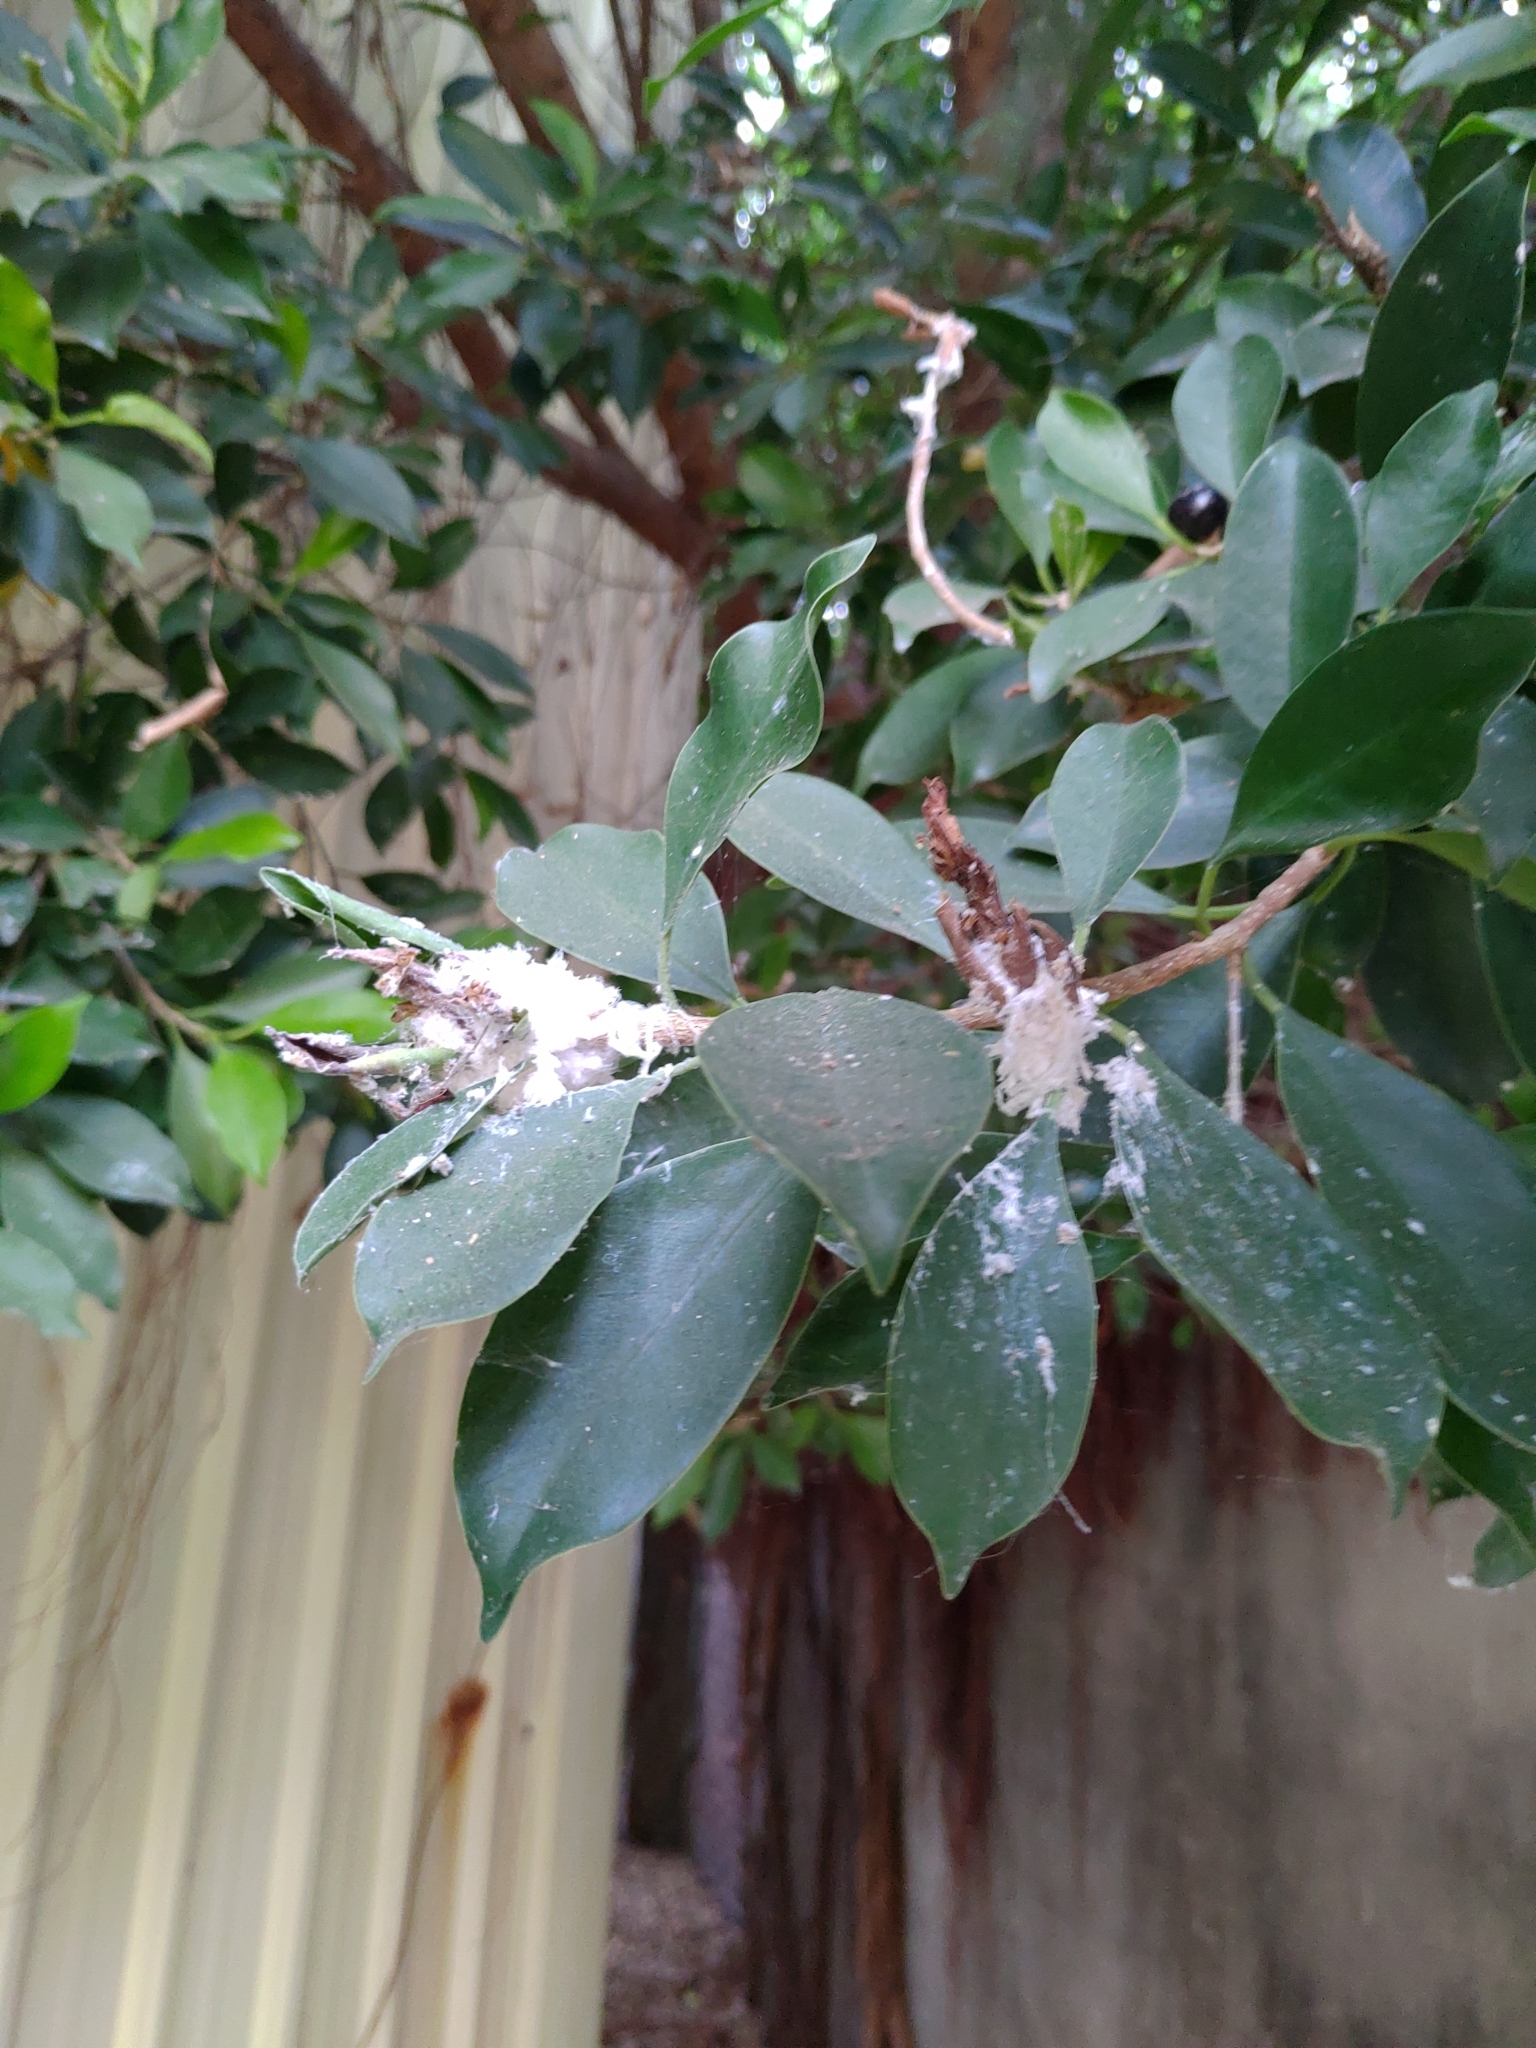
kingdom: Plantae
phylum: Tracheophyta
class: Magnoliopsida
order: Rosales
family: Moraceae
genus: Ficus
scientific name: Ficus microcarpa
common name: Chinese banyan
